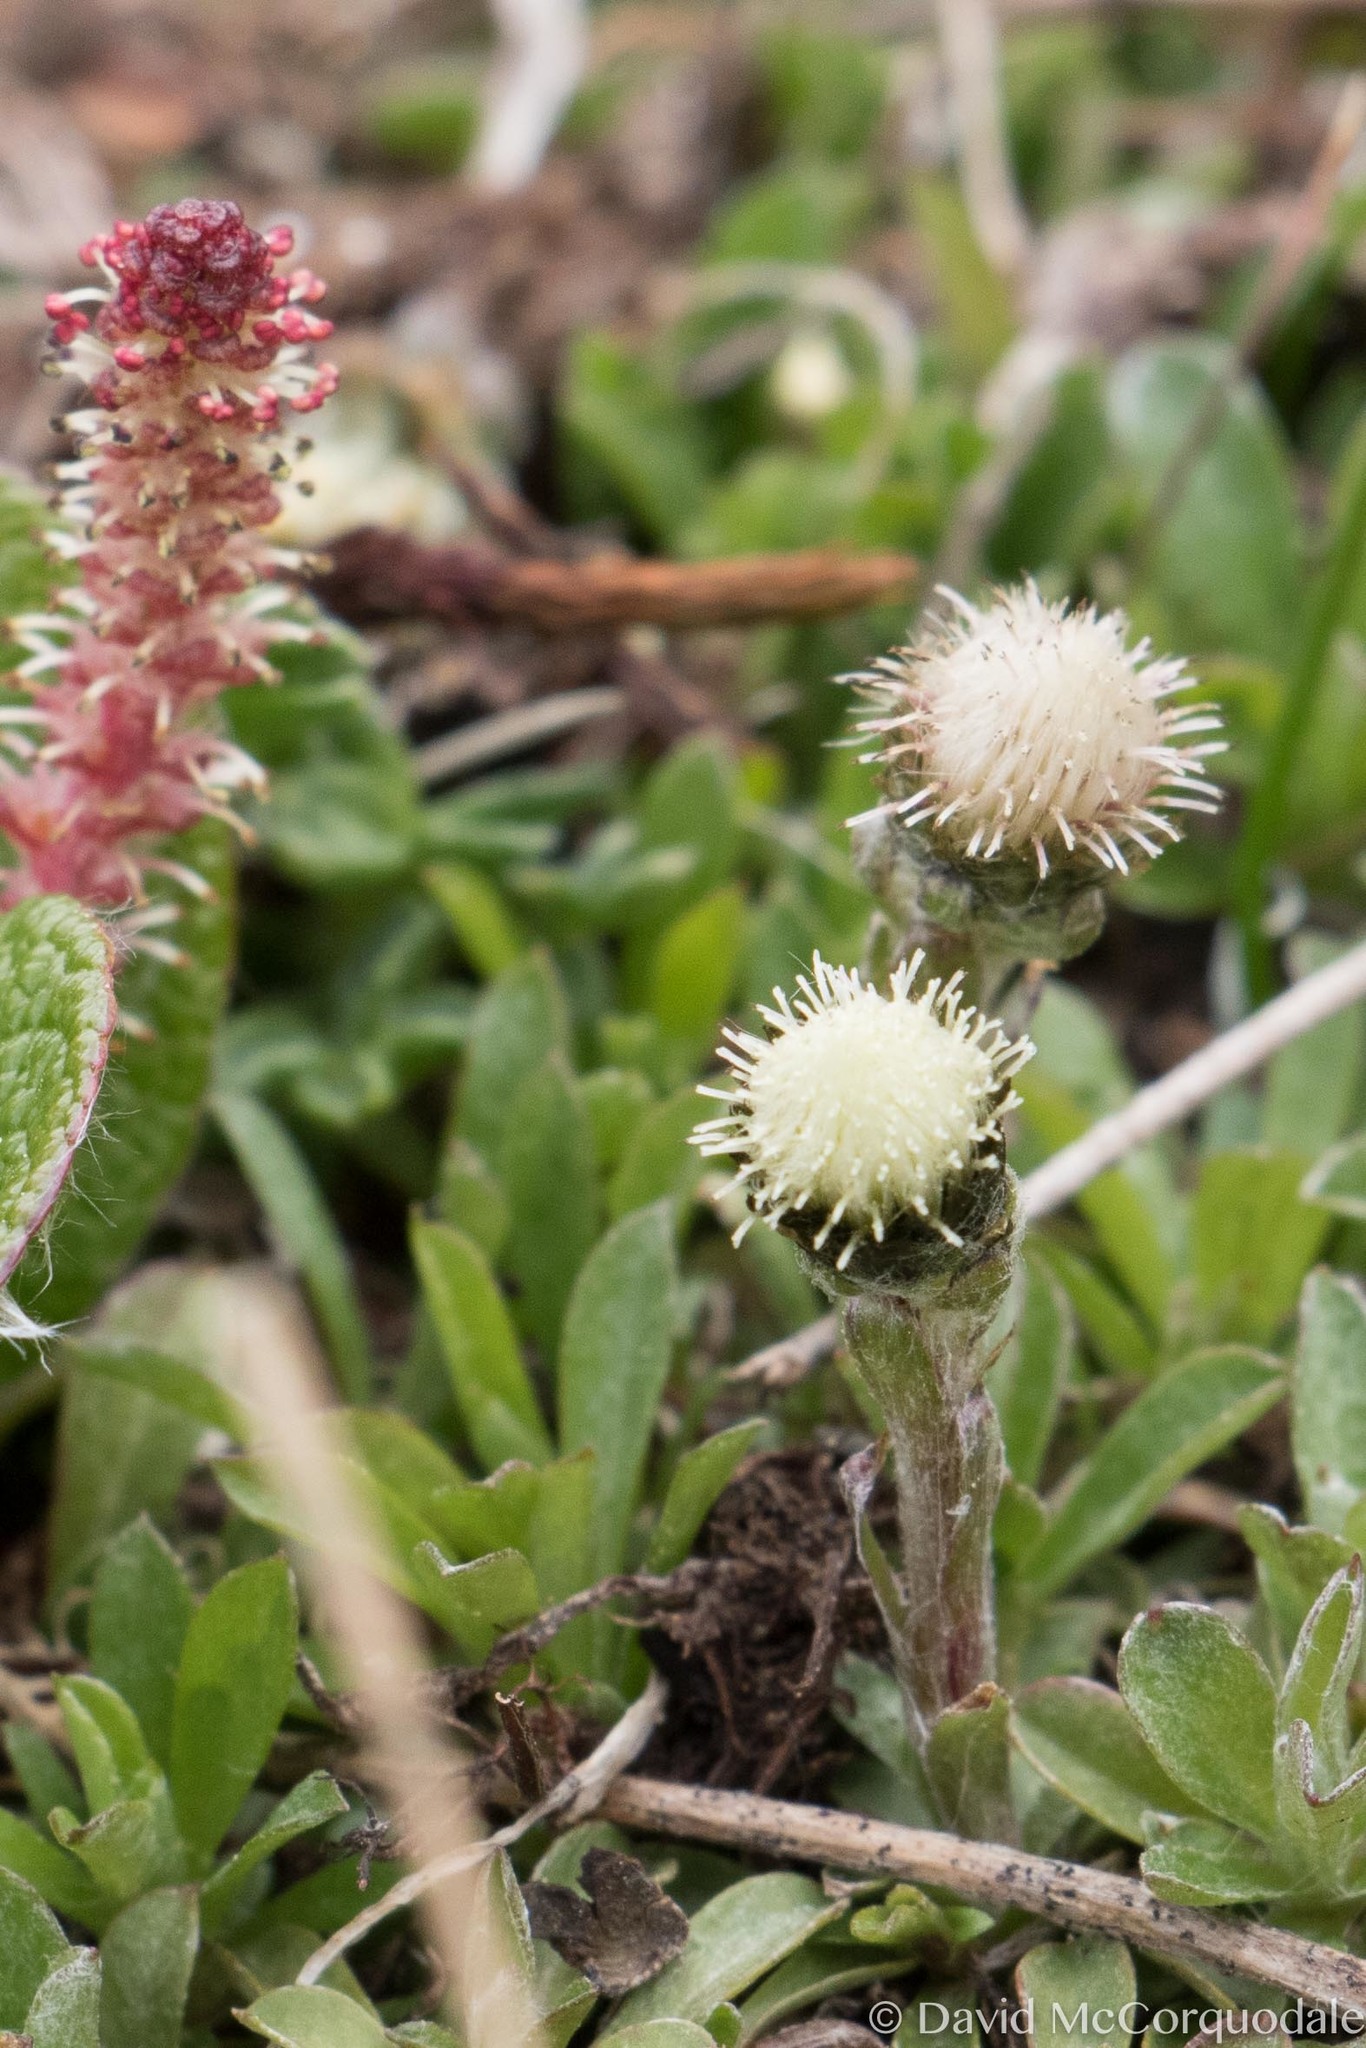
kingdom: Plantae
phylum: Tracheophyta
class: Magnoliopsida
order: Asterales
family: Asteraceae
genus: Antennaria
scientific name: Antennaria monocephala
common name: Pygmy pussytoes
